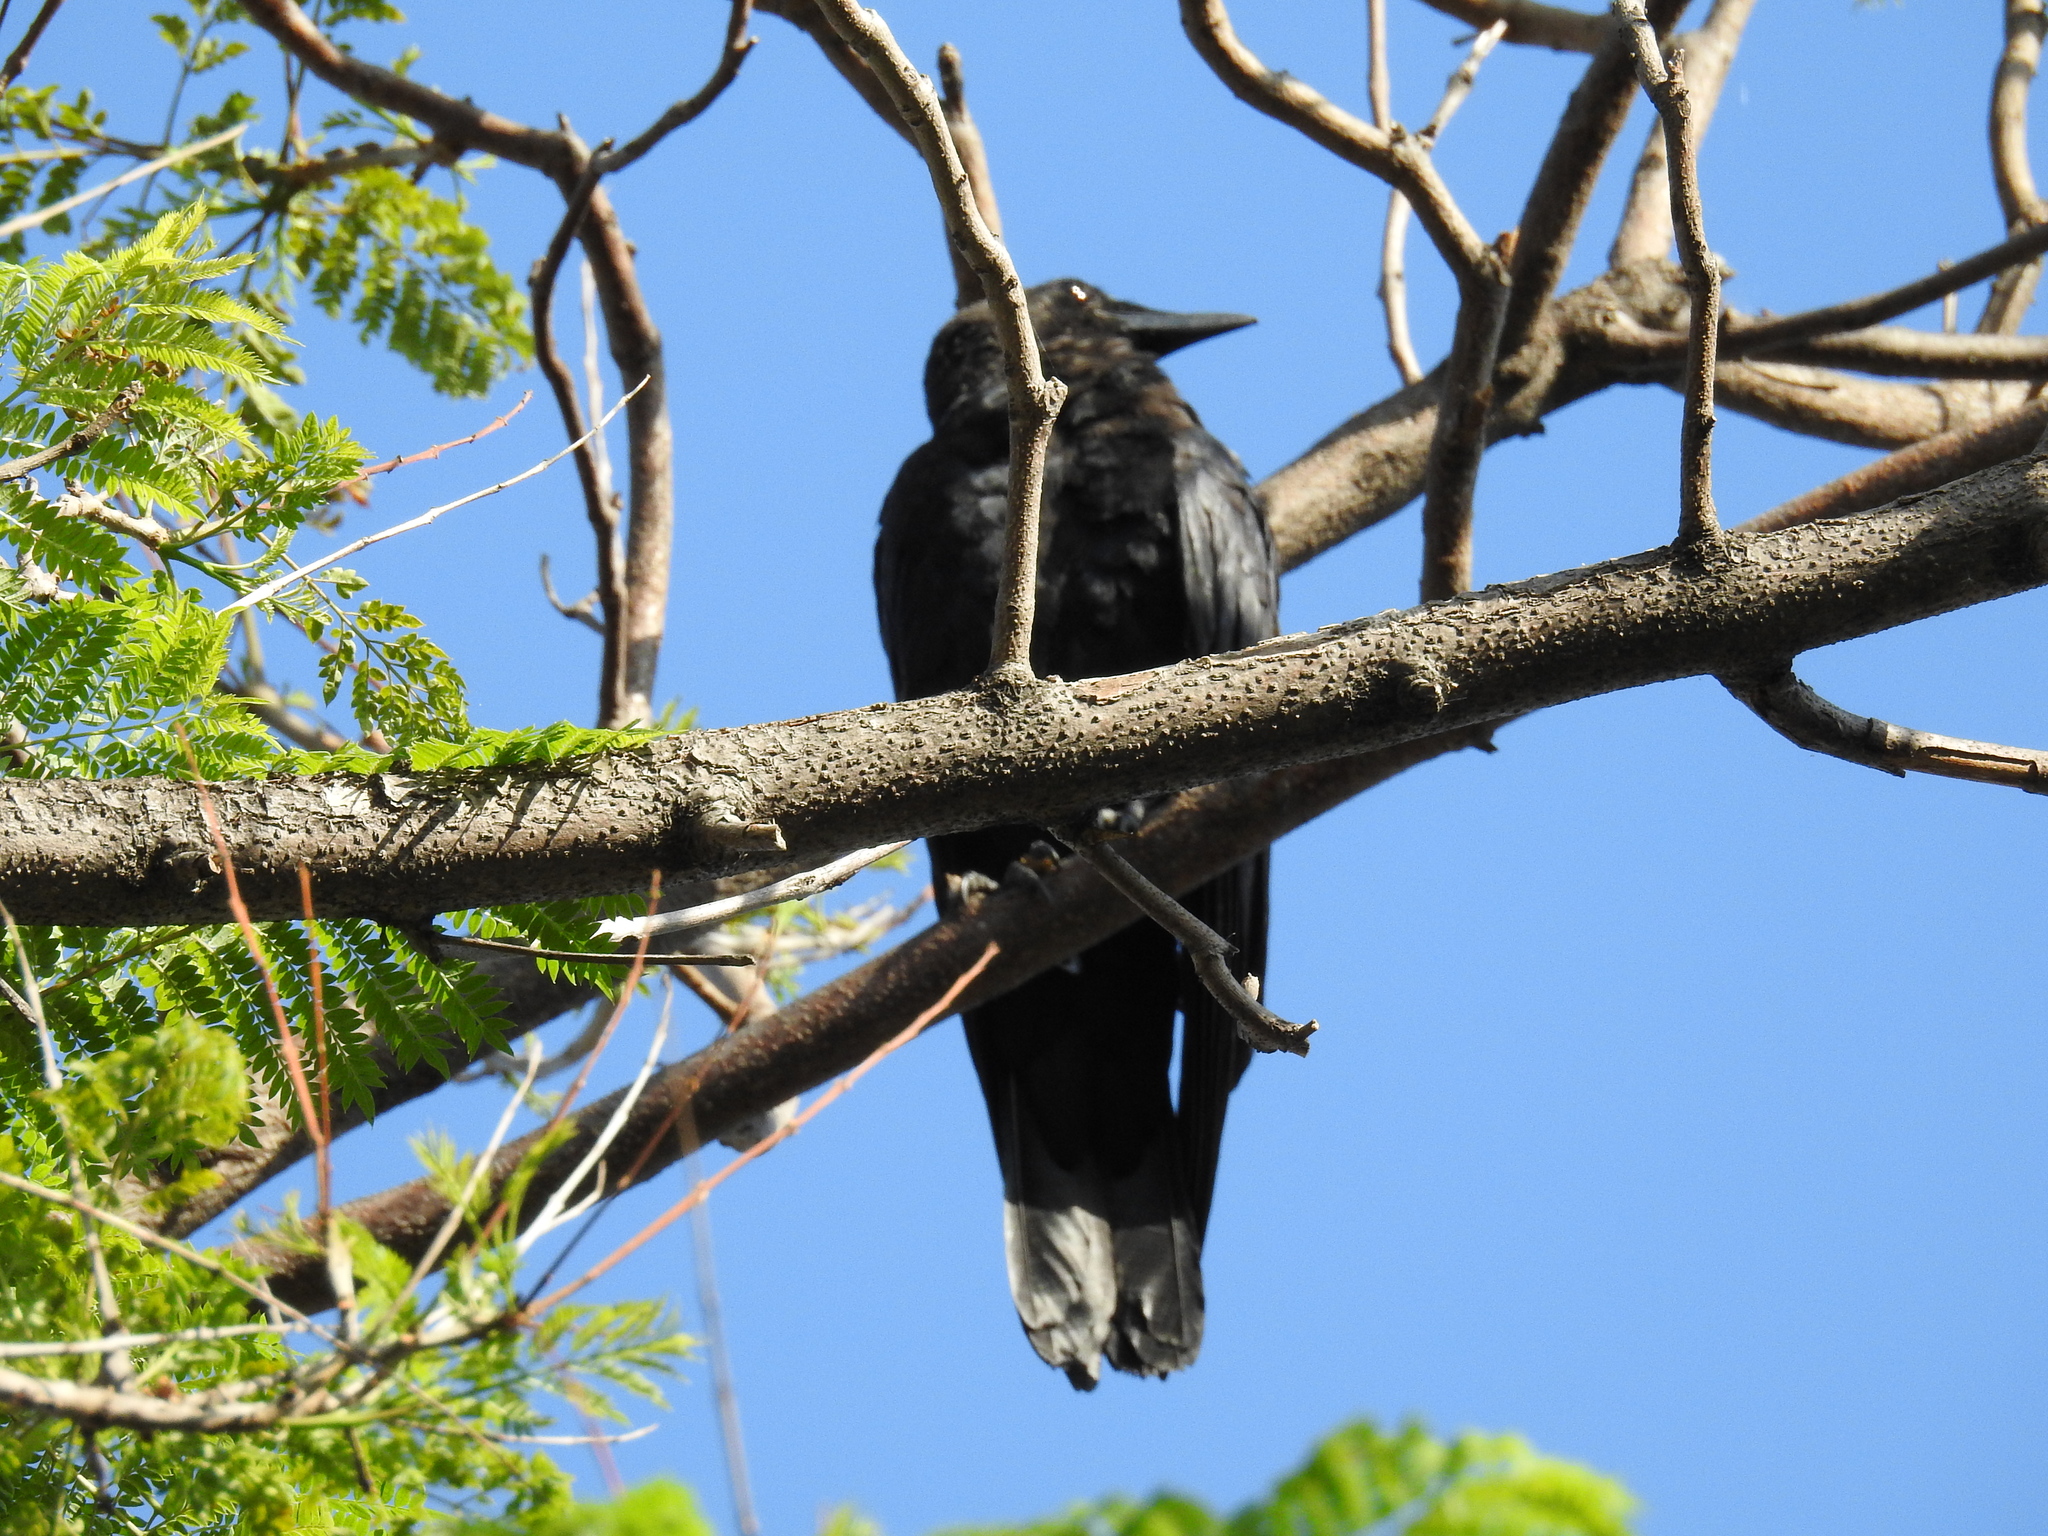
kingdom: Animalia
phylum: Chordata
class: Aves
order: Passeriformes
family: Corvidae
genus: Corvus
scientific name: Corvus brachyrhynchos
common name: American crow
